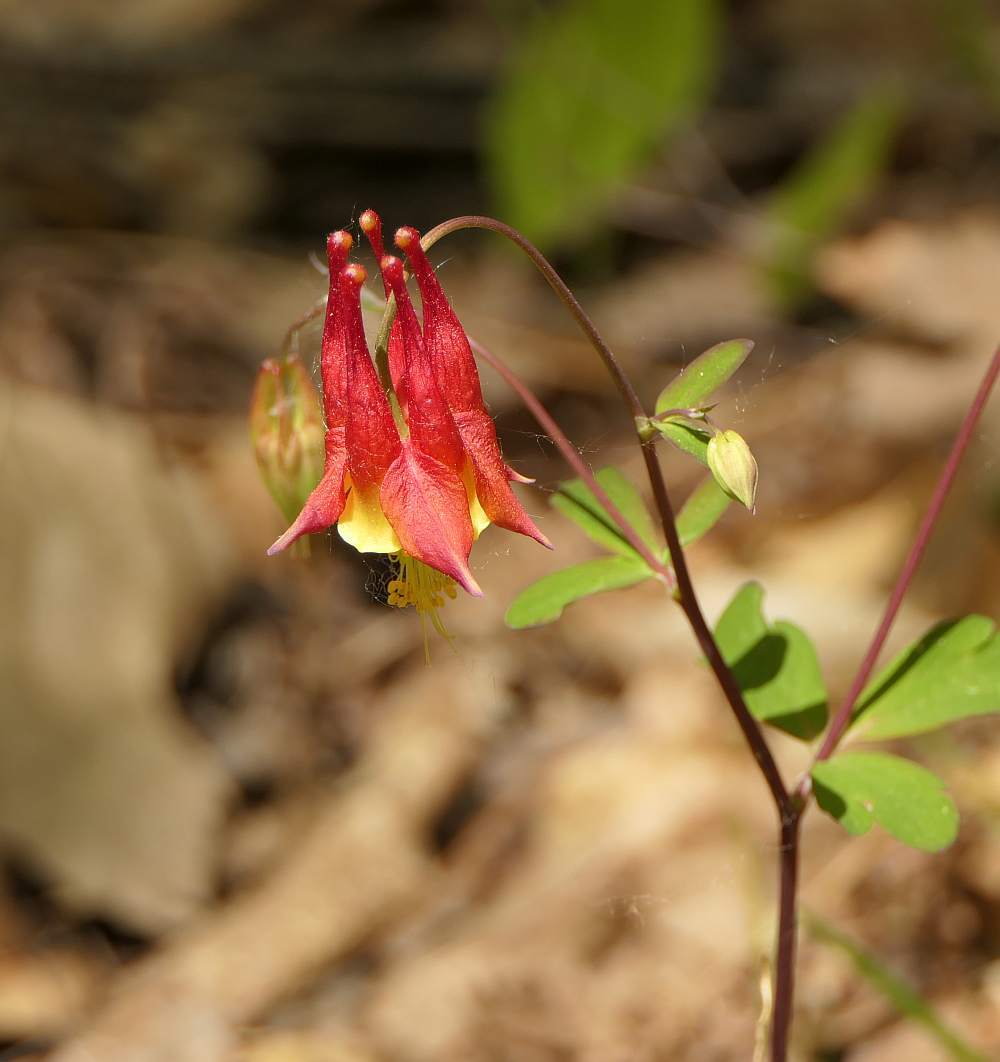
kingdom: Plantae
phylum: Tracheophyta
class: Magnoliopsida
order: Ranunculales
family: Ranunculaceae
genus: Aquilegia
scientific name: Aquilegia canadensis
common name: American columbine
